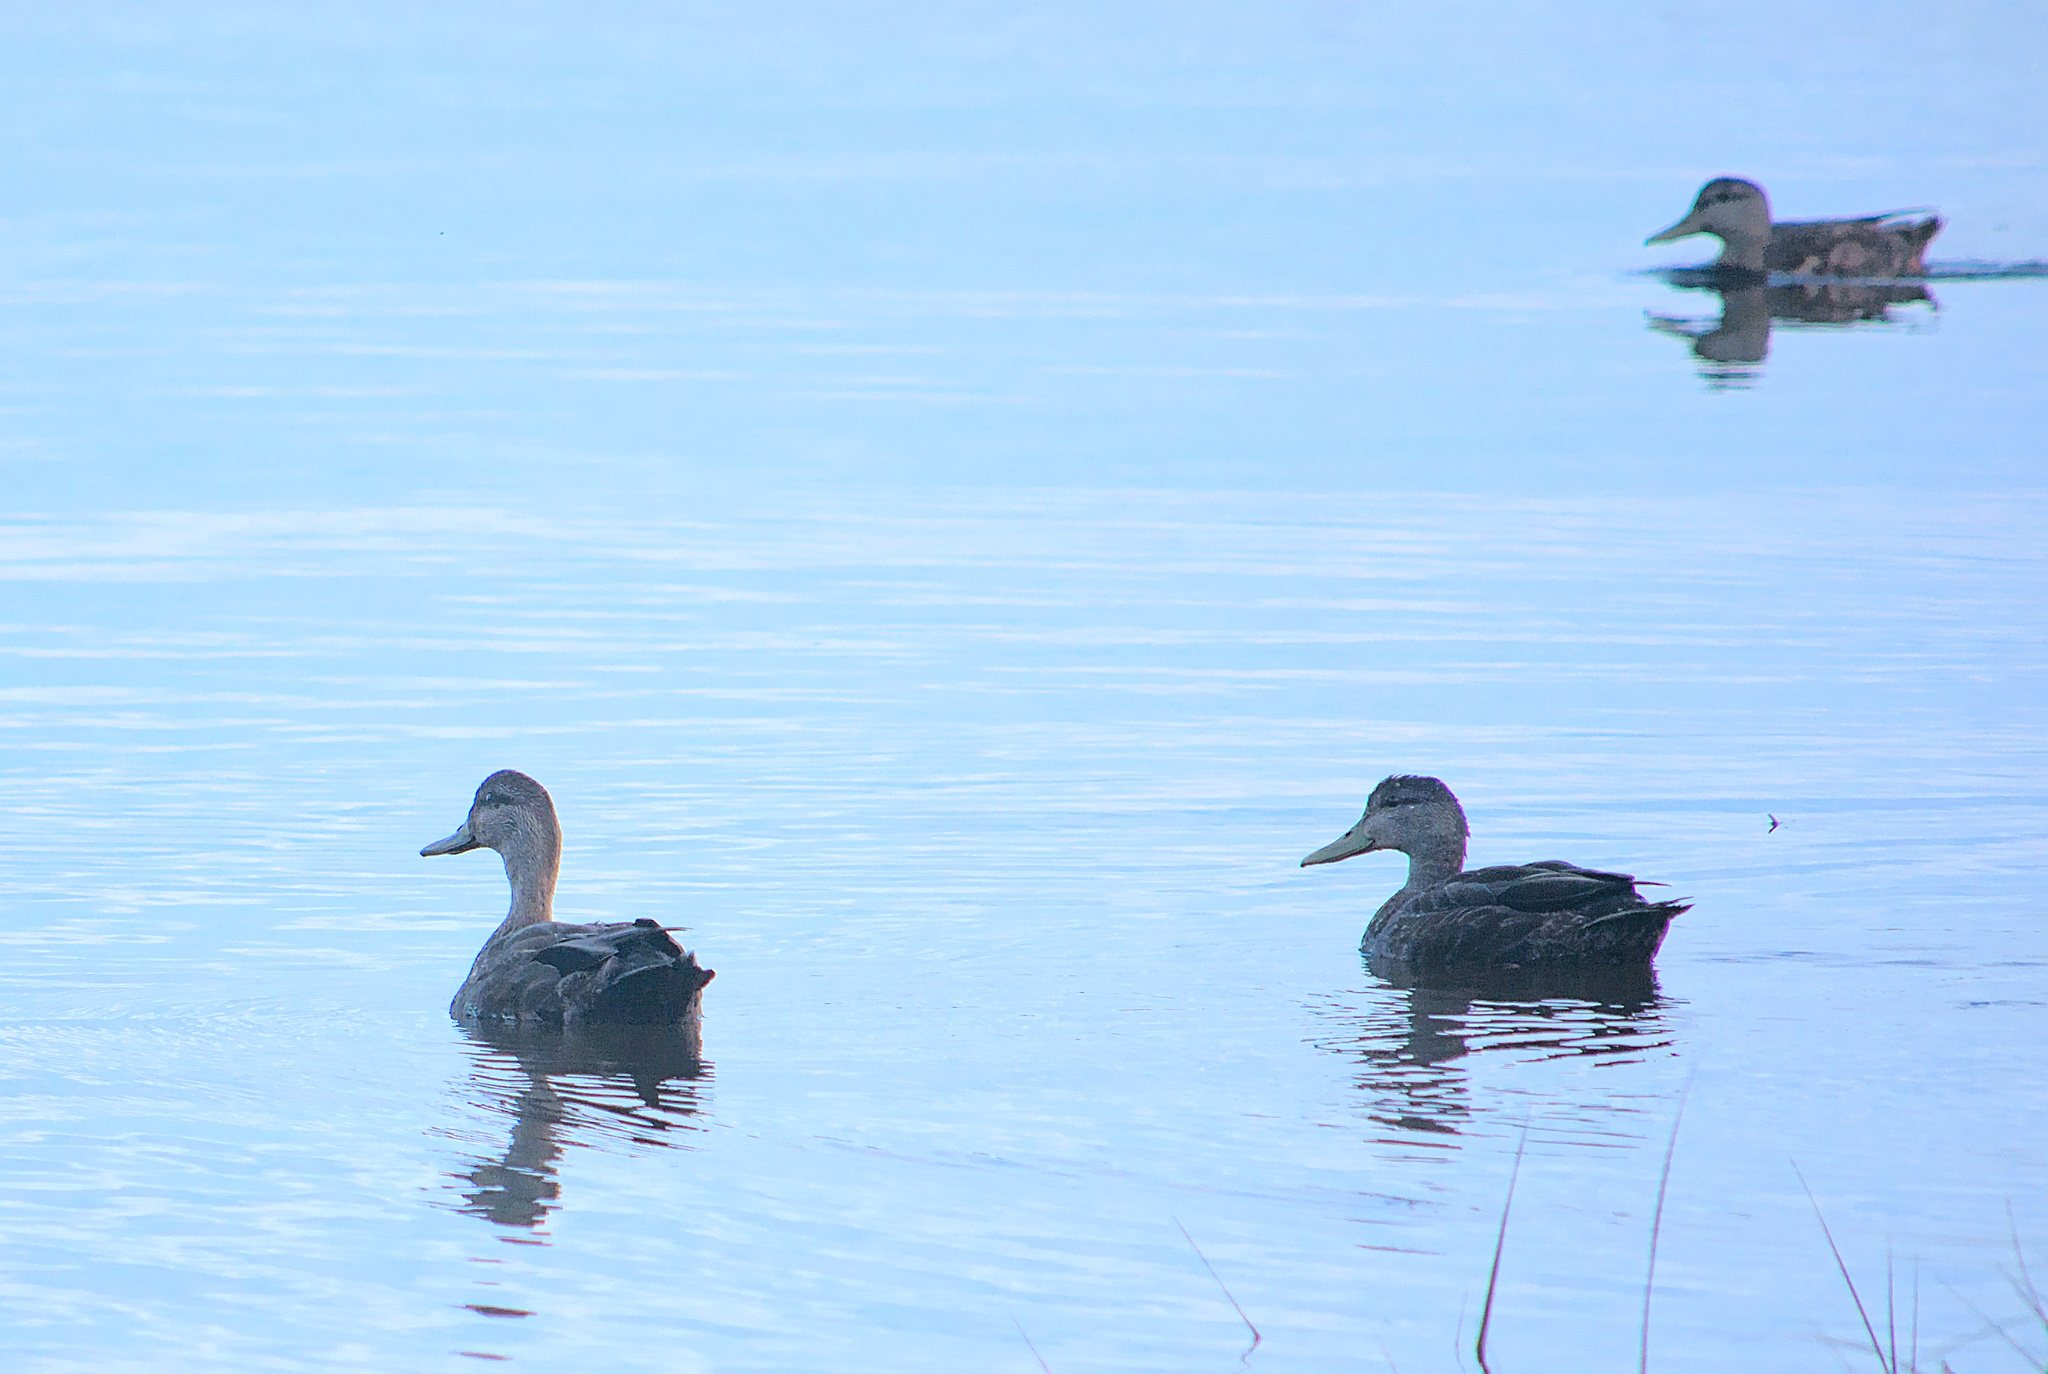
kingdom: Animalia
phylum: Chordata
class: Aves
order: Anseriformes
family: Anatidae
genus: Anas
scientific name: Anas rubripes
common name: American black duck
